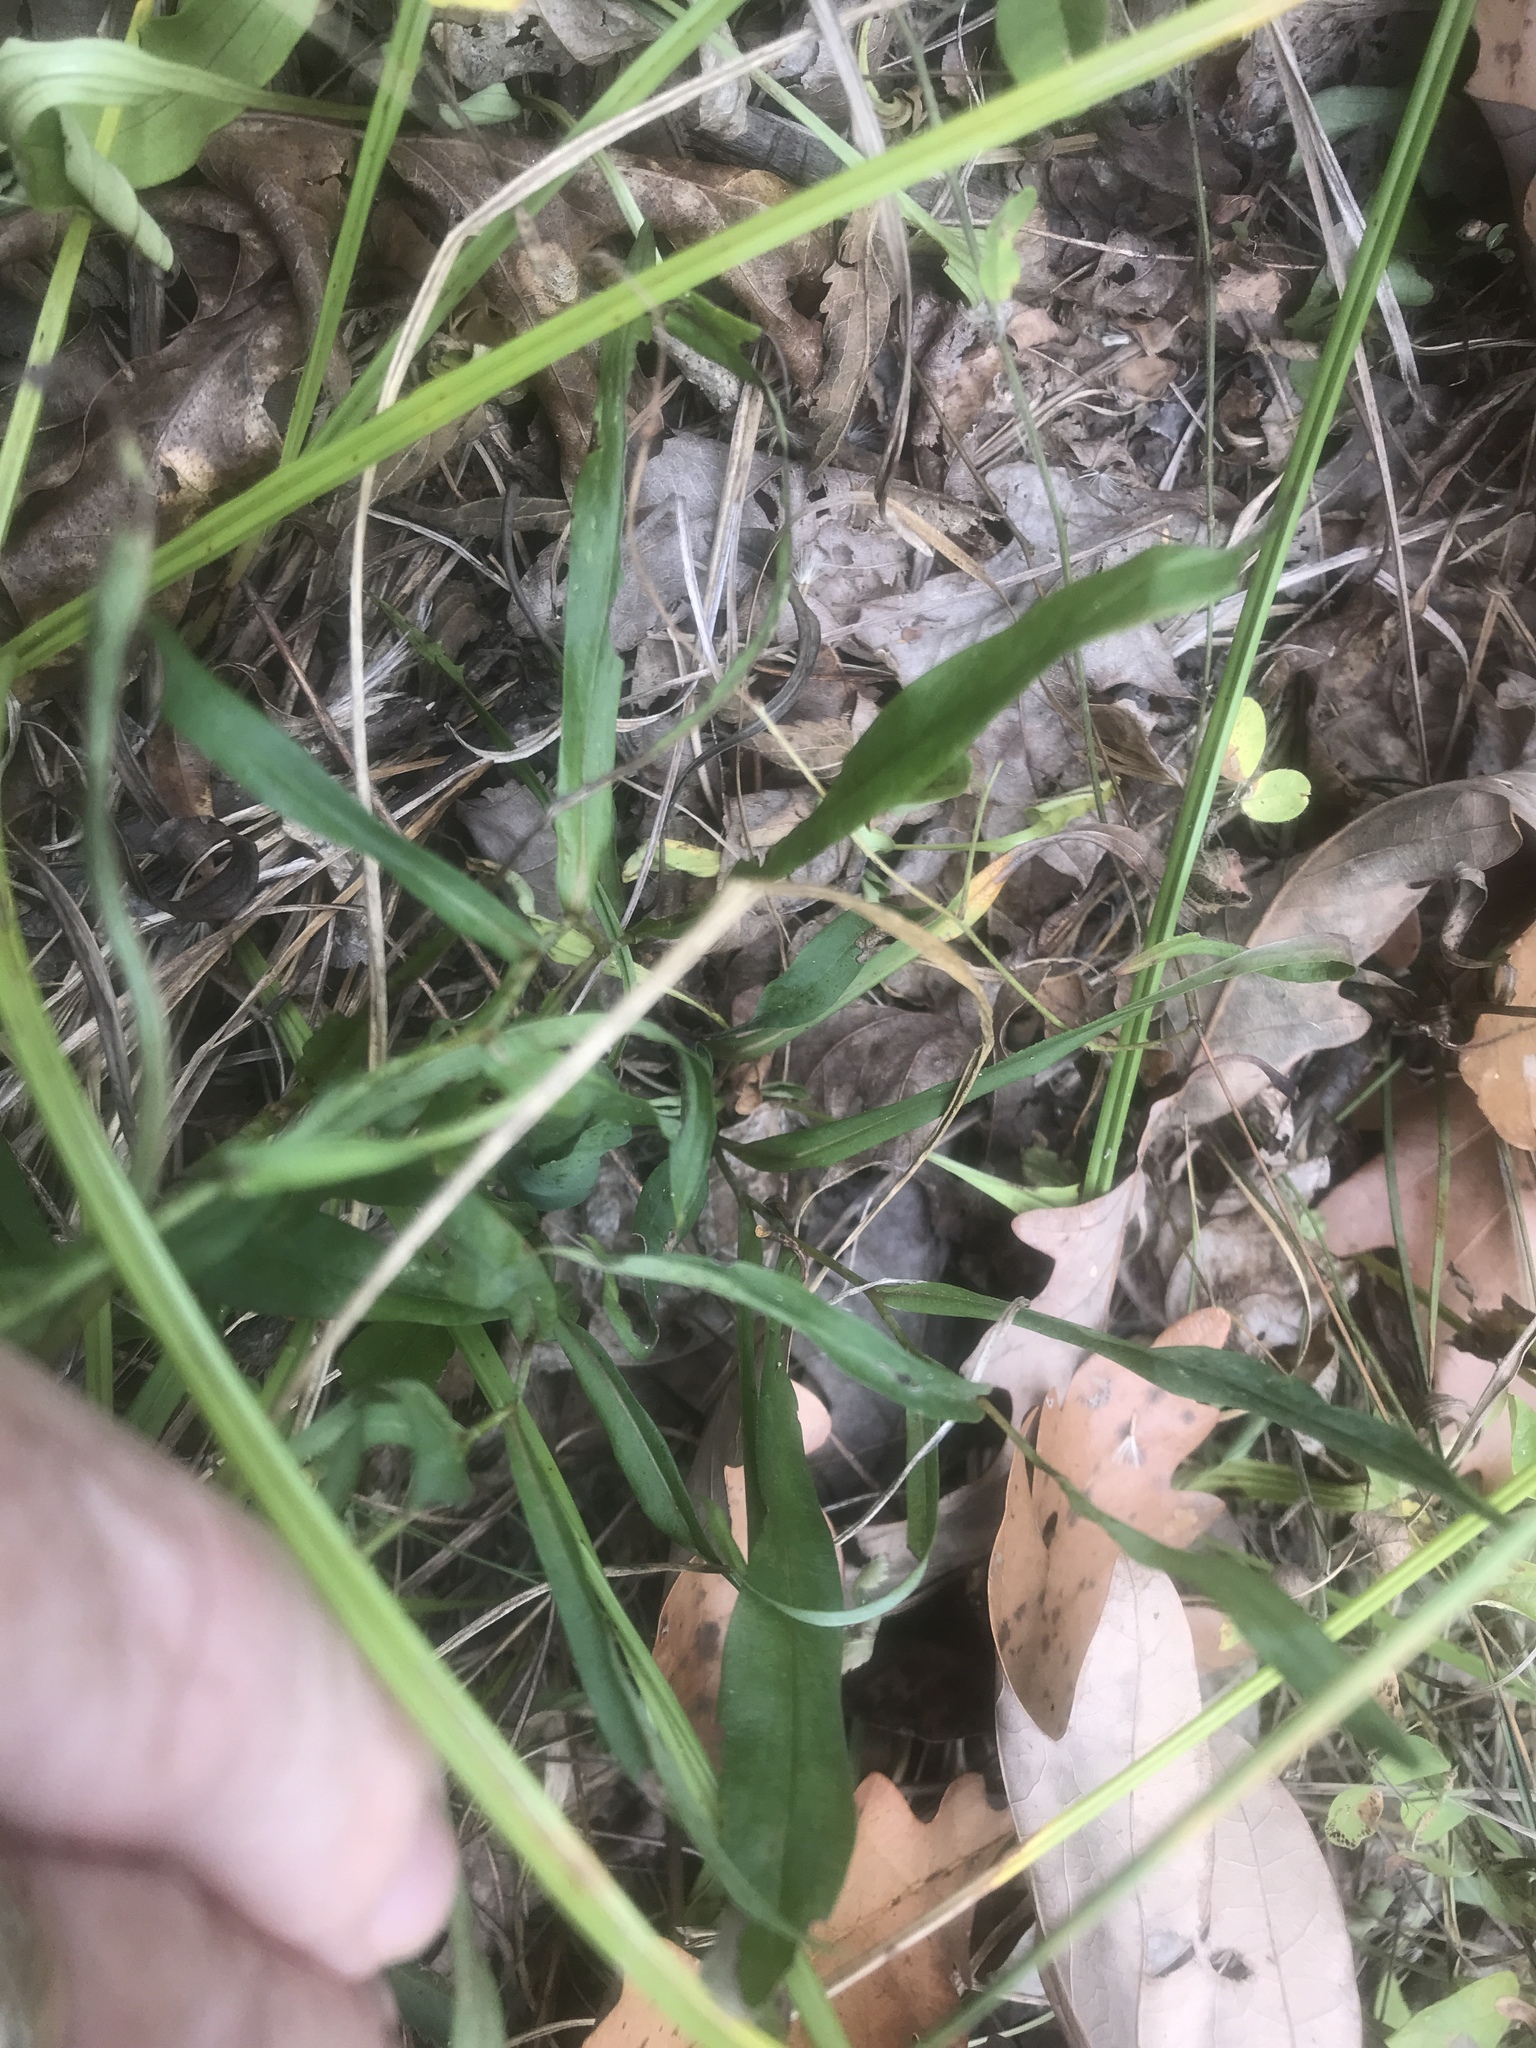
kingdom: Plantae
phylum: Tracheophyta
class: Magnoliopsida
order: Asterales
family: Asteraceae
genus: Symphyotrichum
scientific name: Symphyotrichum laeve
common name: Glaucous aster
